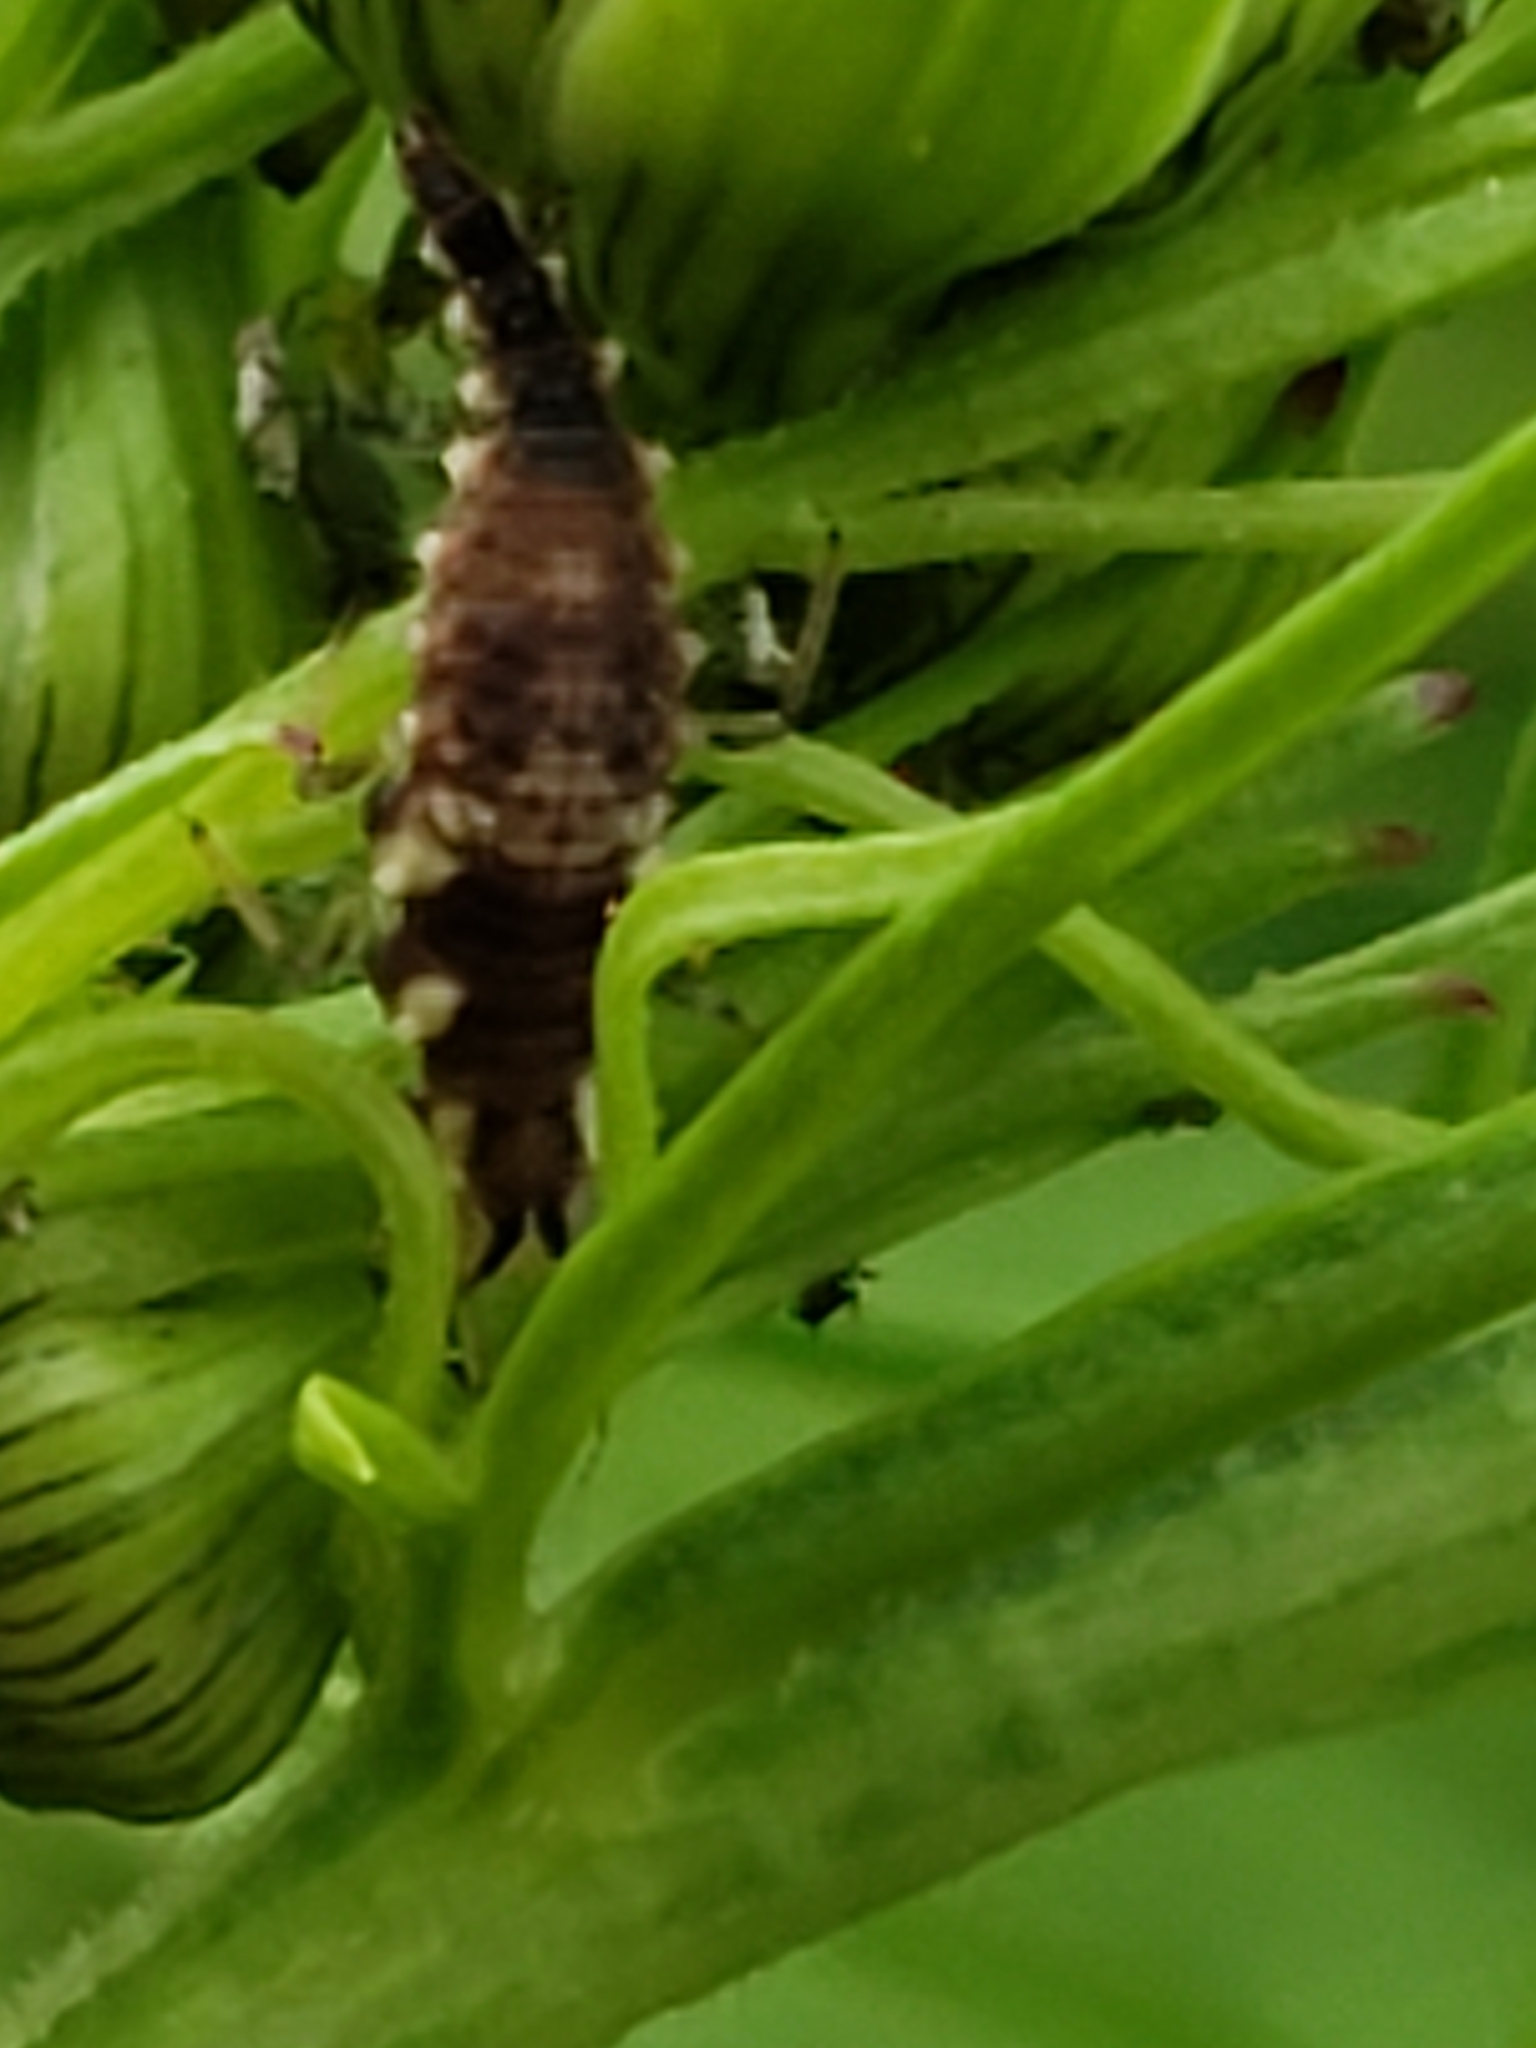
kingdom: Animalia
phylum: Arthropoda
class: Insecta
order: Neuroptera
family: Chrysopidae
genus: Chrysoperla
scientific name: Chrysoperla rufilabris
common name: Red-lipped green lacewing
